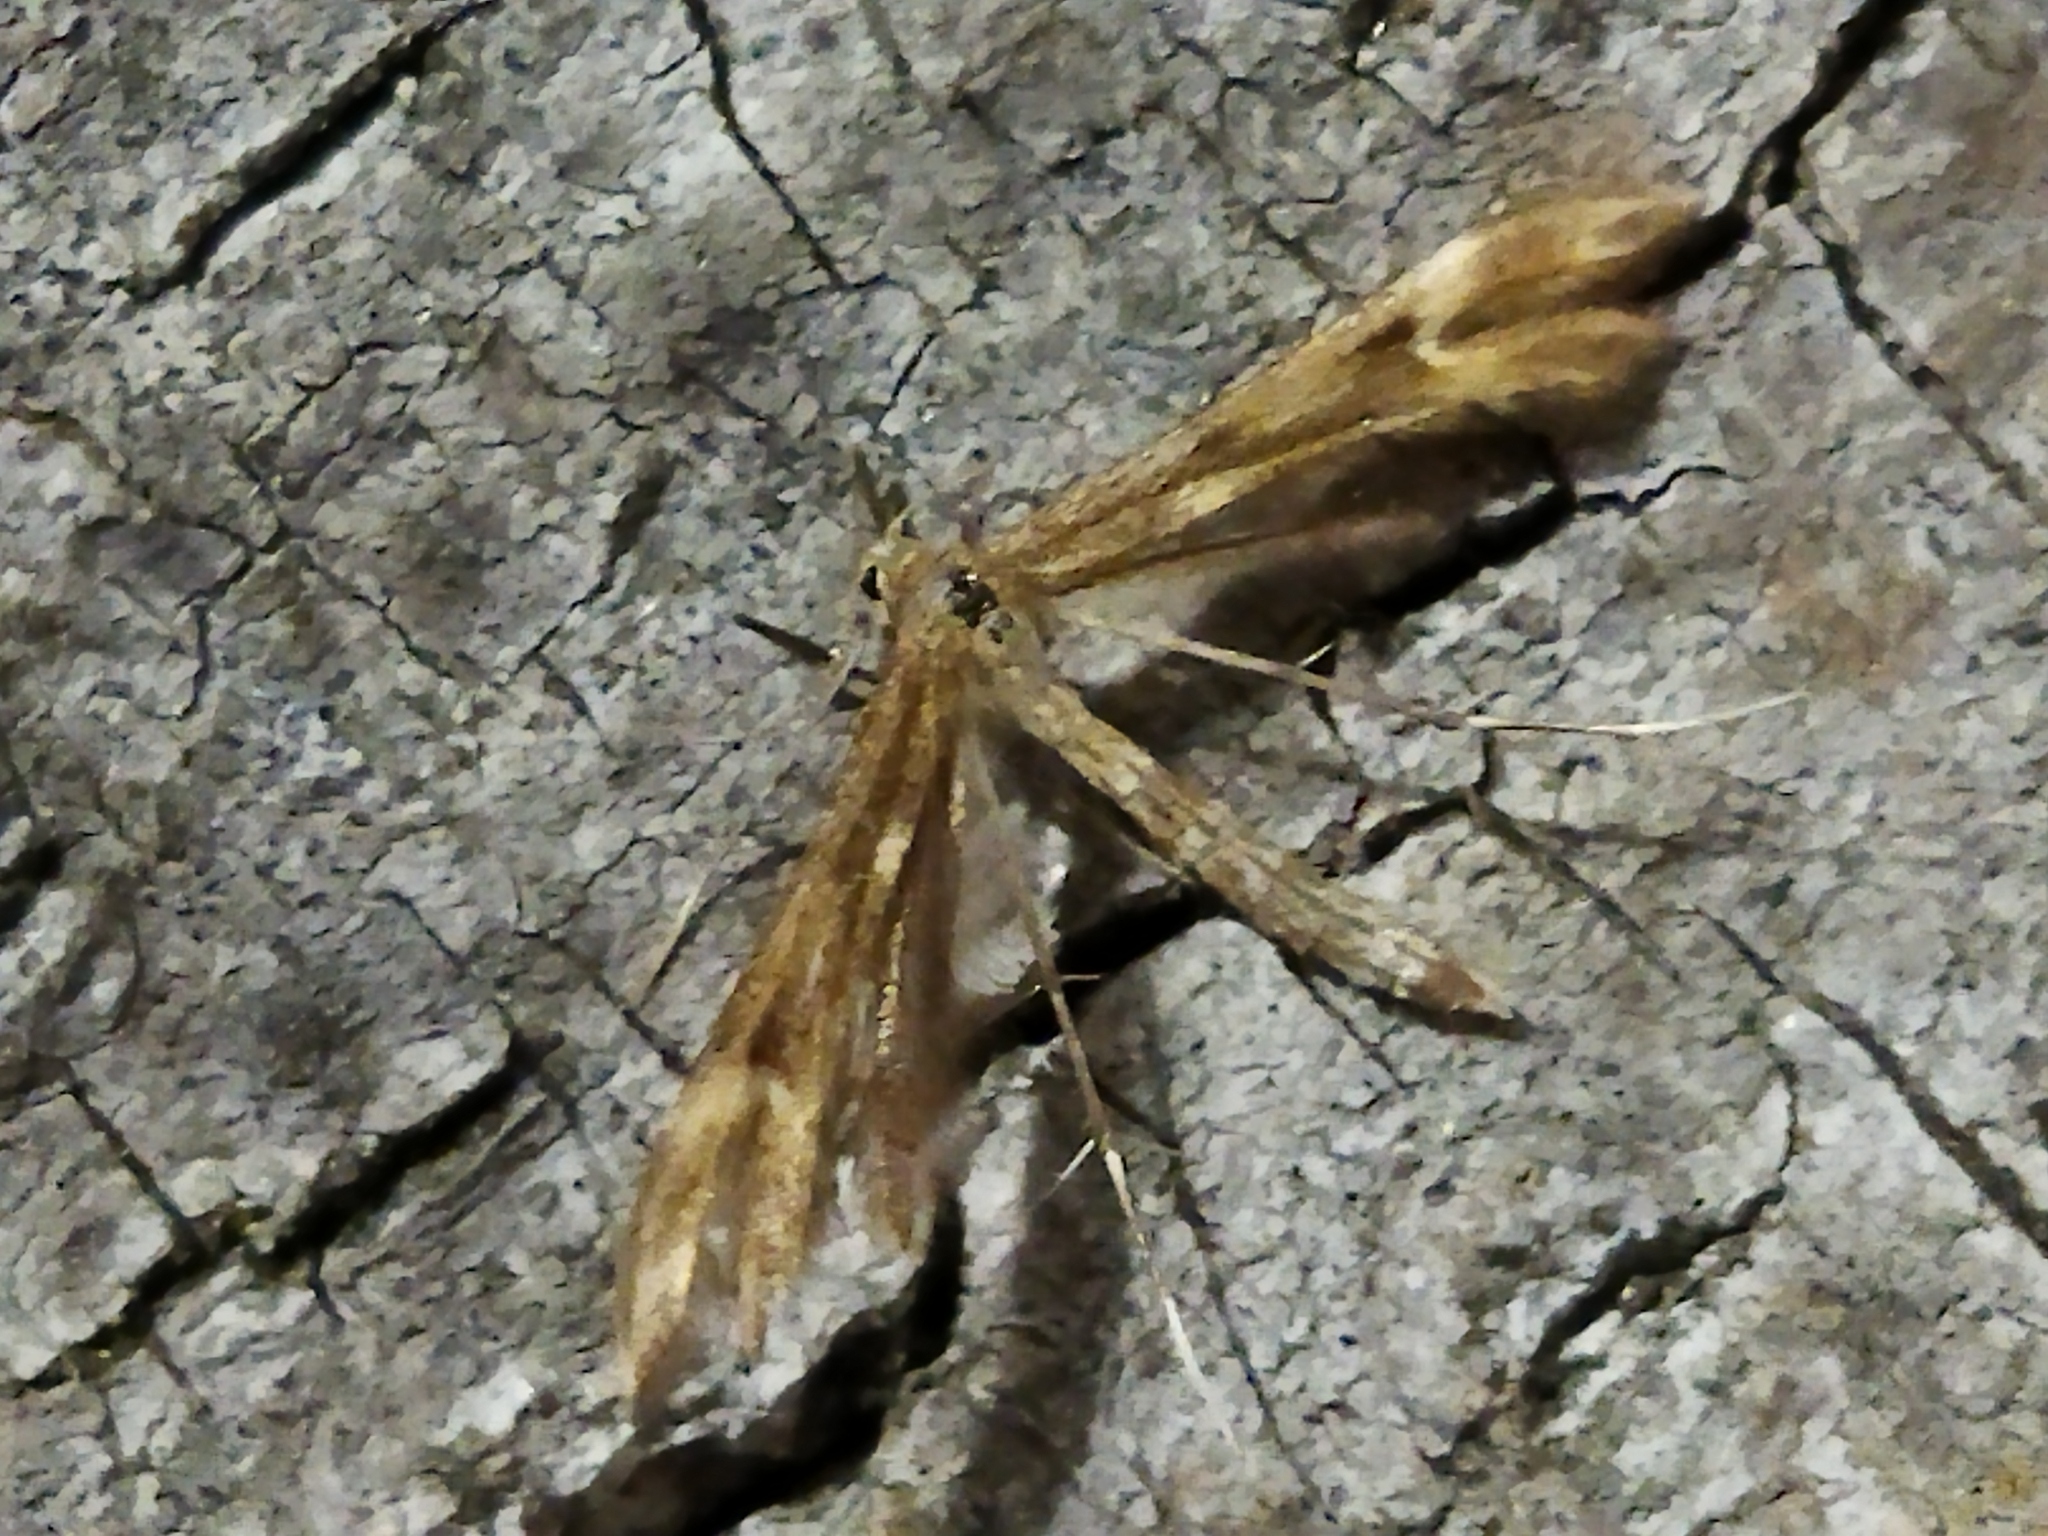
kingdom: Animalia
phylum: Arthropoda
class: Insecta
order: Lepidoptera
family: Pterophoridae
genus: Cnaemidophorus
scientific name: Cnaemidophorus rhododactyla
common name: Rose plume
